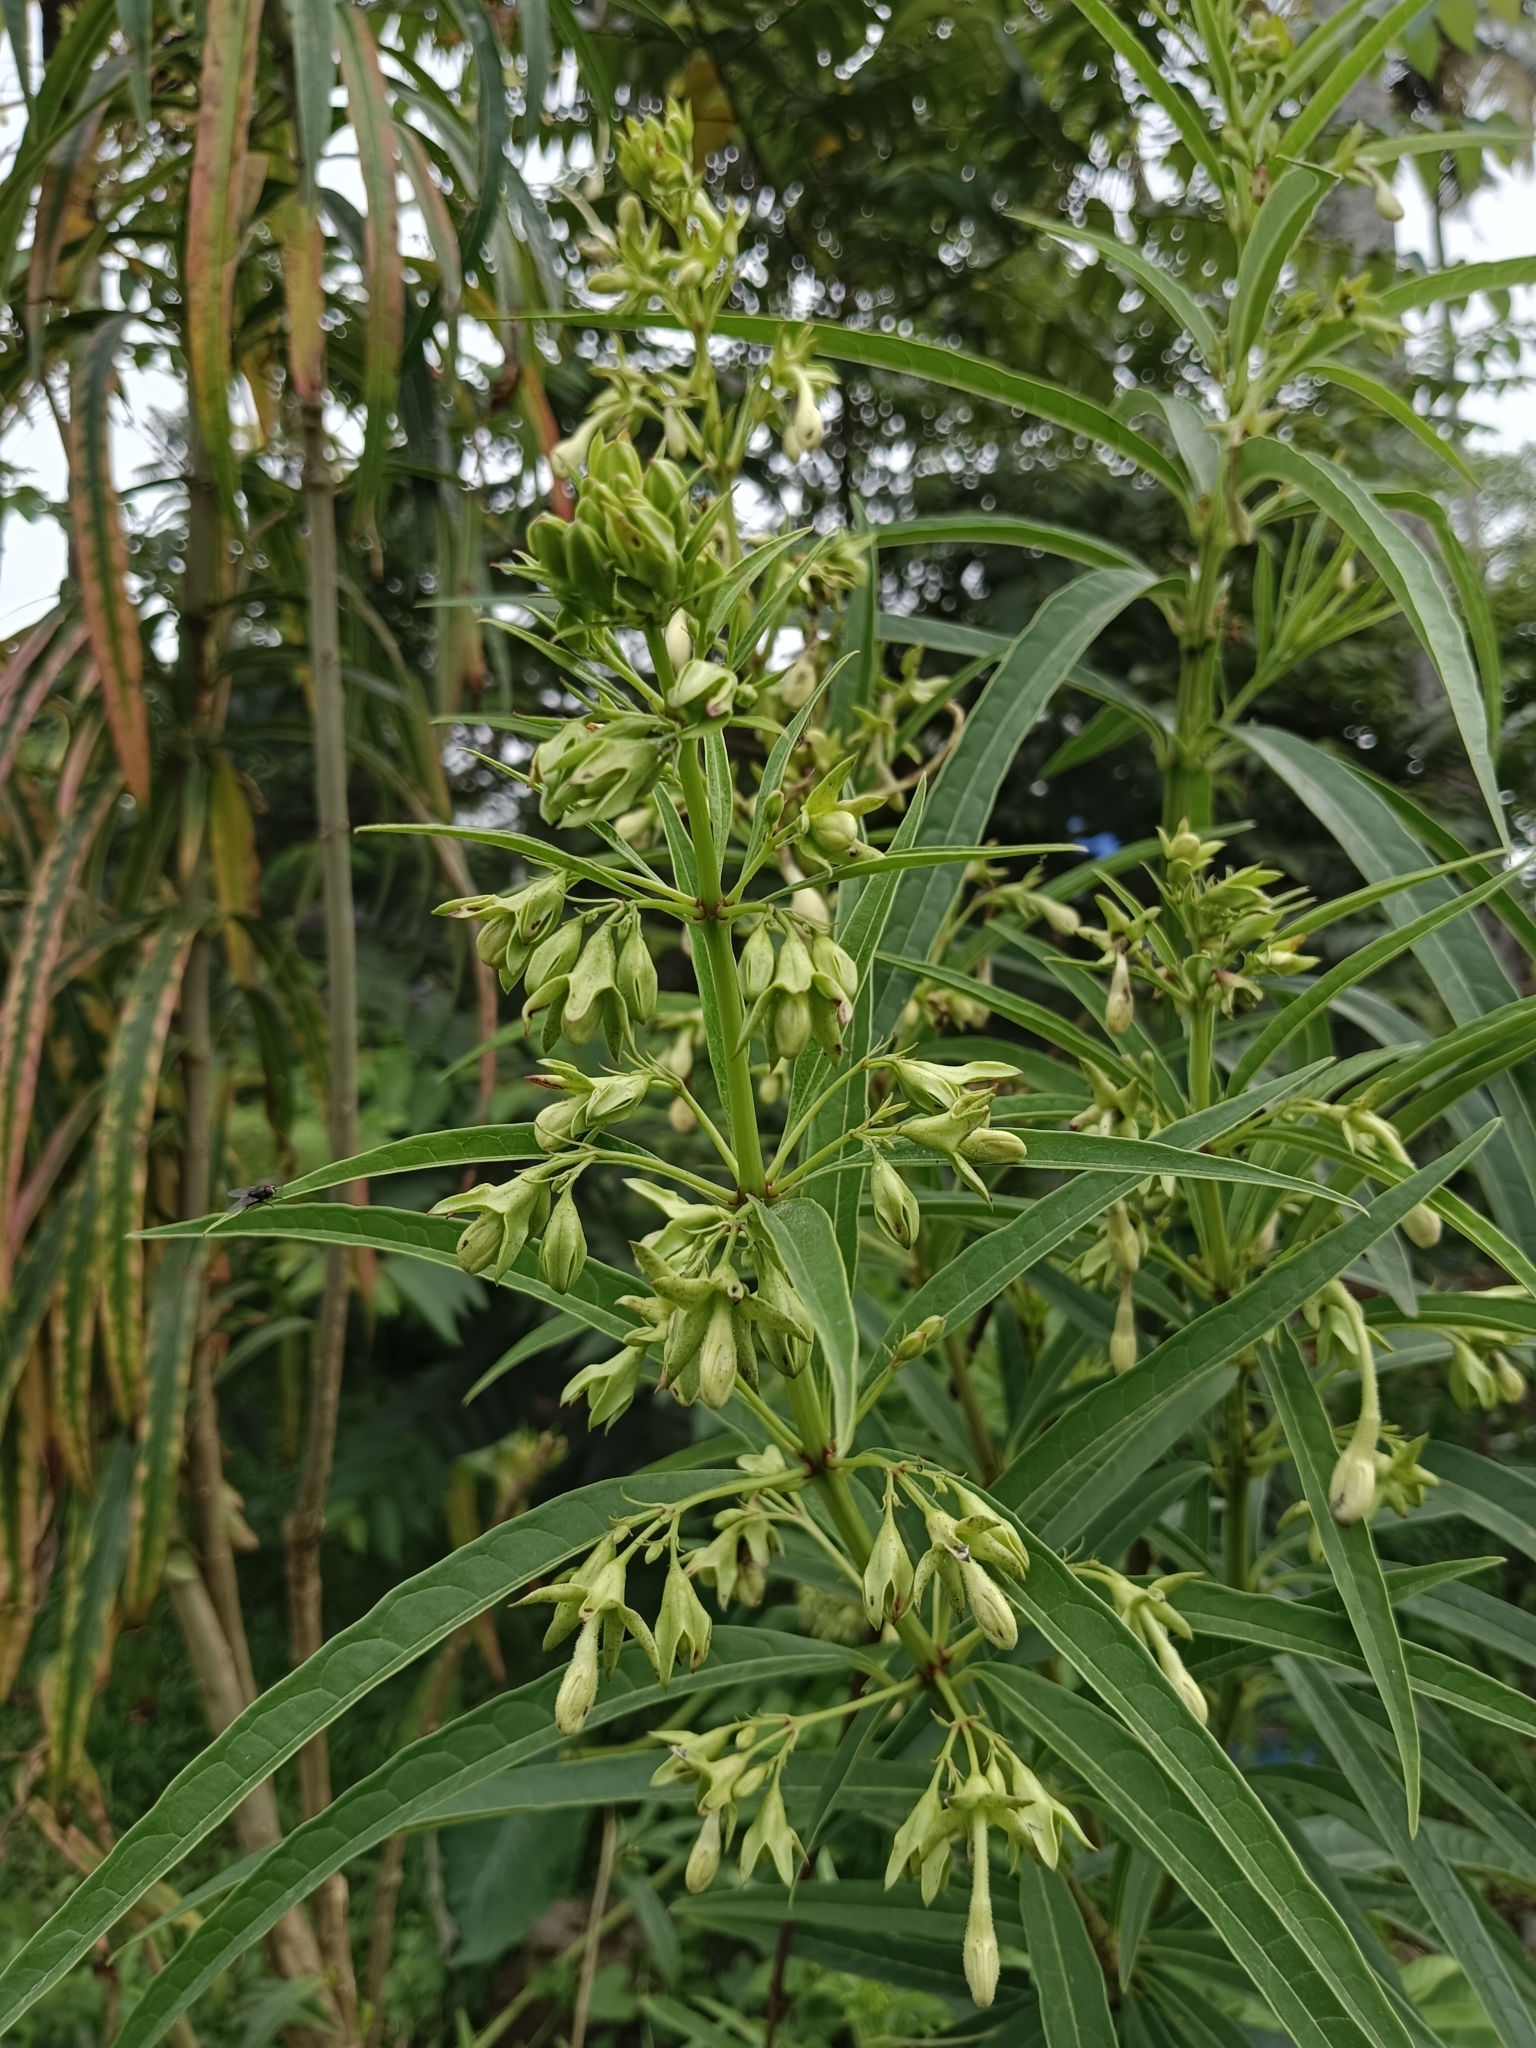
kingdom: Plantae
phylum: Tracheophyta
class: Magnoliopsida
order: Lamiales
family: Lamiaceae
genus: Clerodendrum
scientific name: Clerodendrum indicum
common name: Turk's turbin
